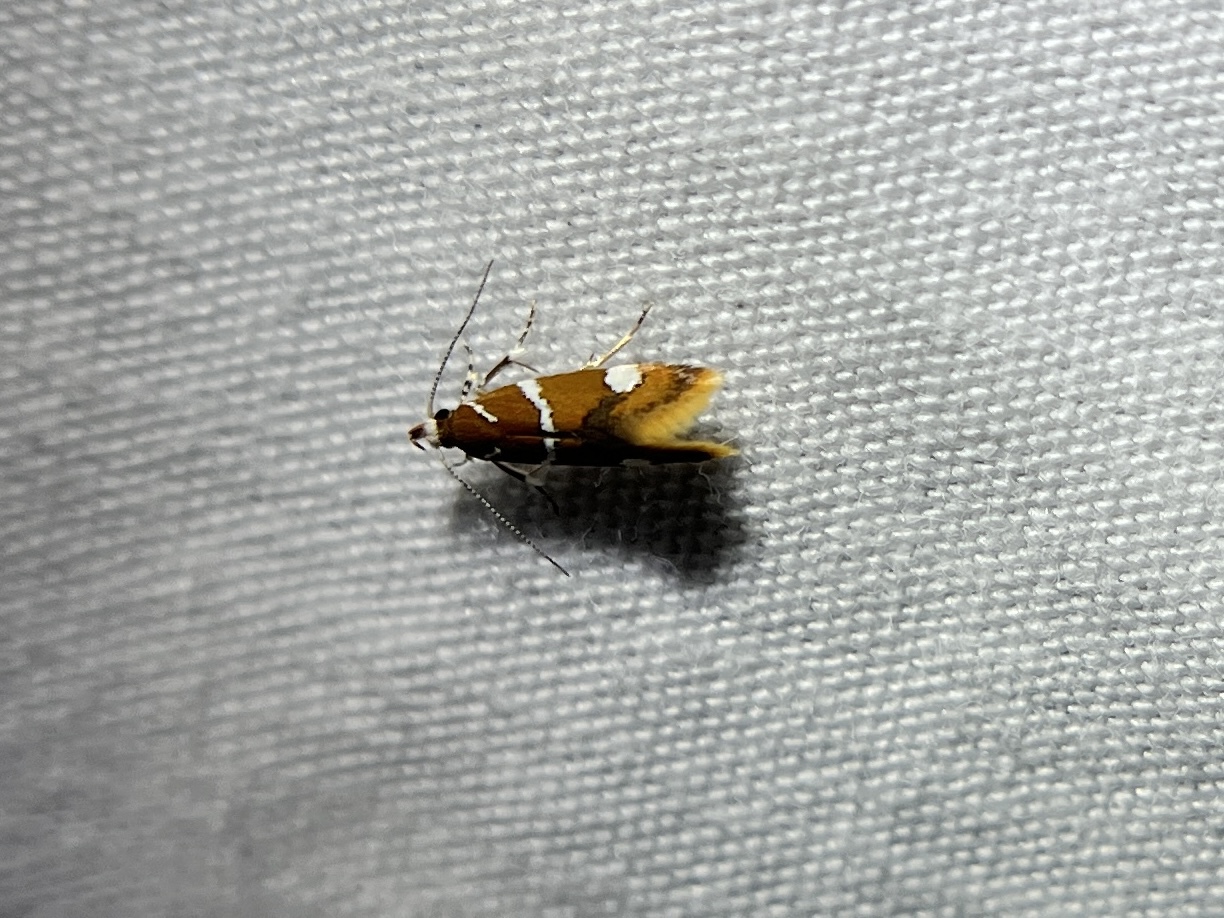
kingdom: Animalia
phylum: Arthropoda
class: Insecta
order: Lepidoptera
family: Oecophoridae
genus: Promalactis
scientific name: Promalactis suzukiella
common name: Moth
